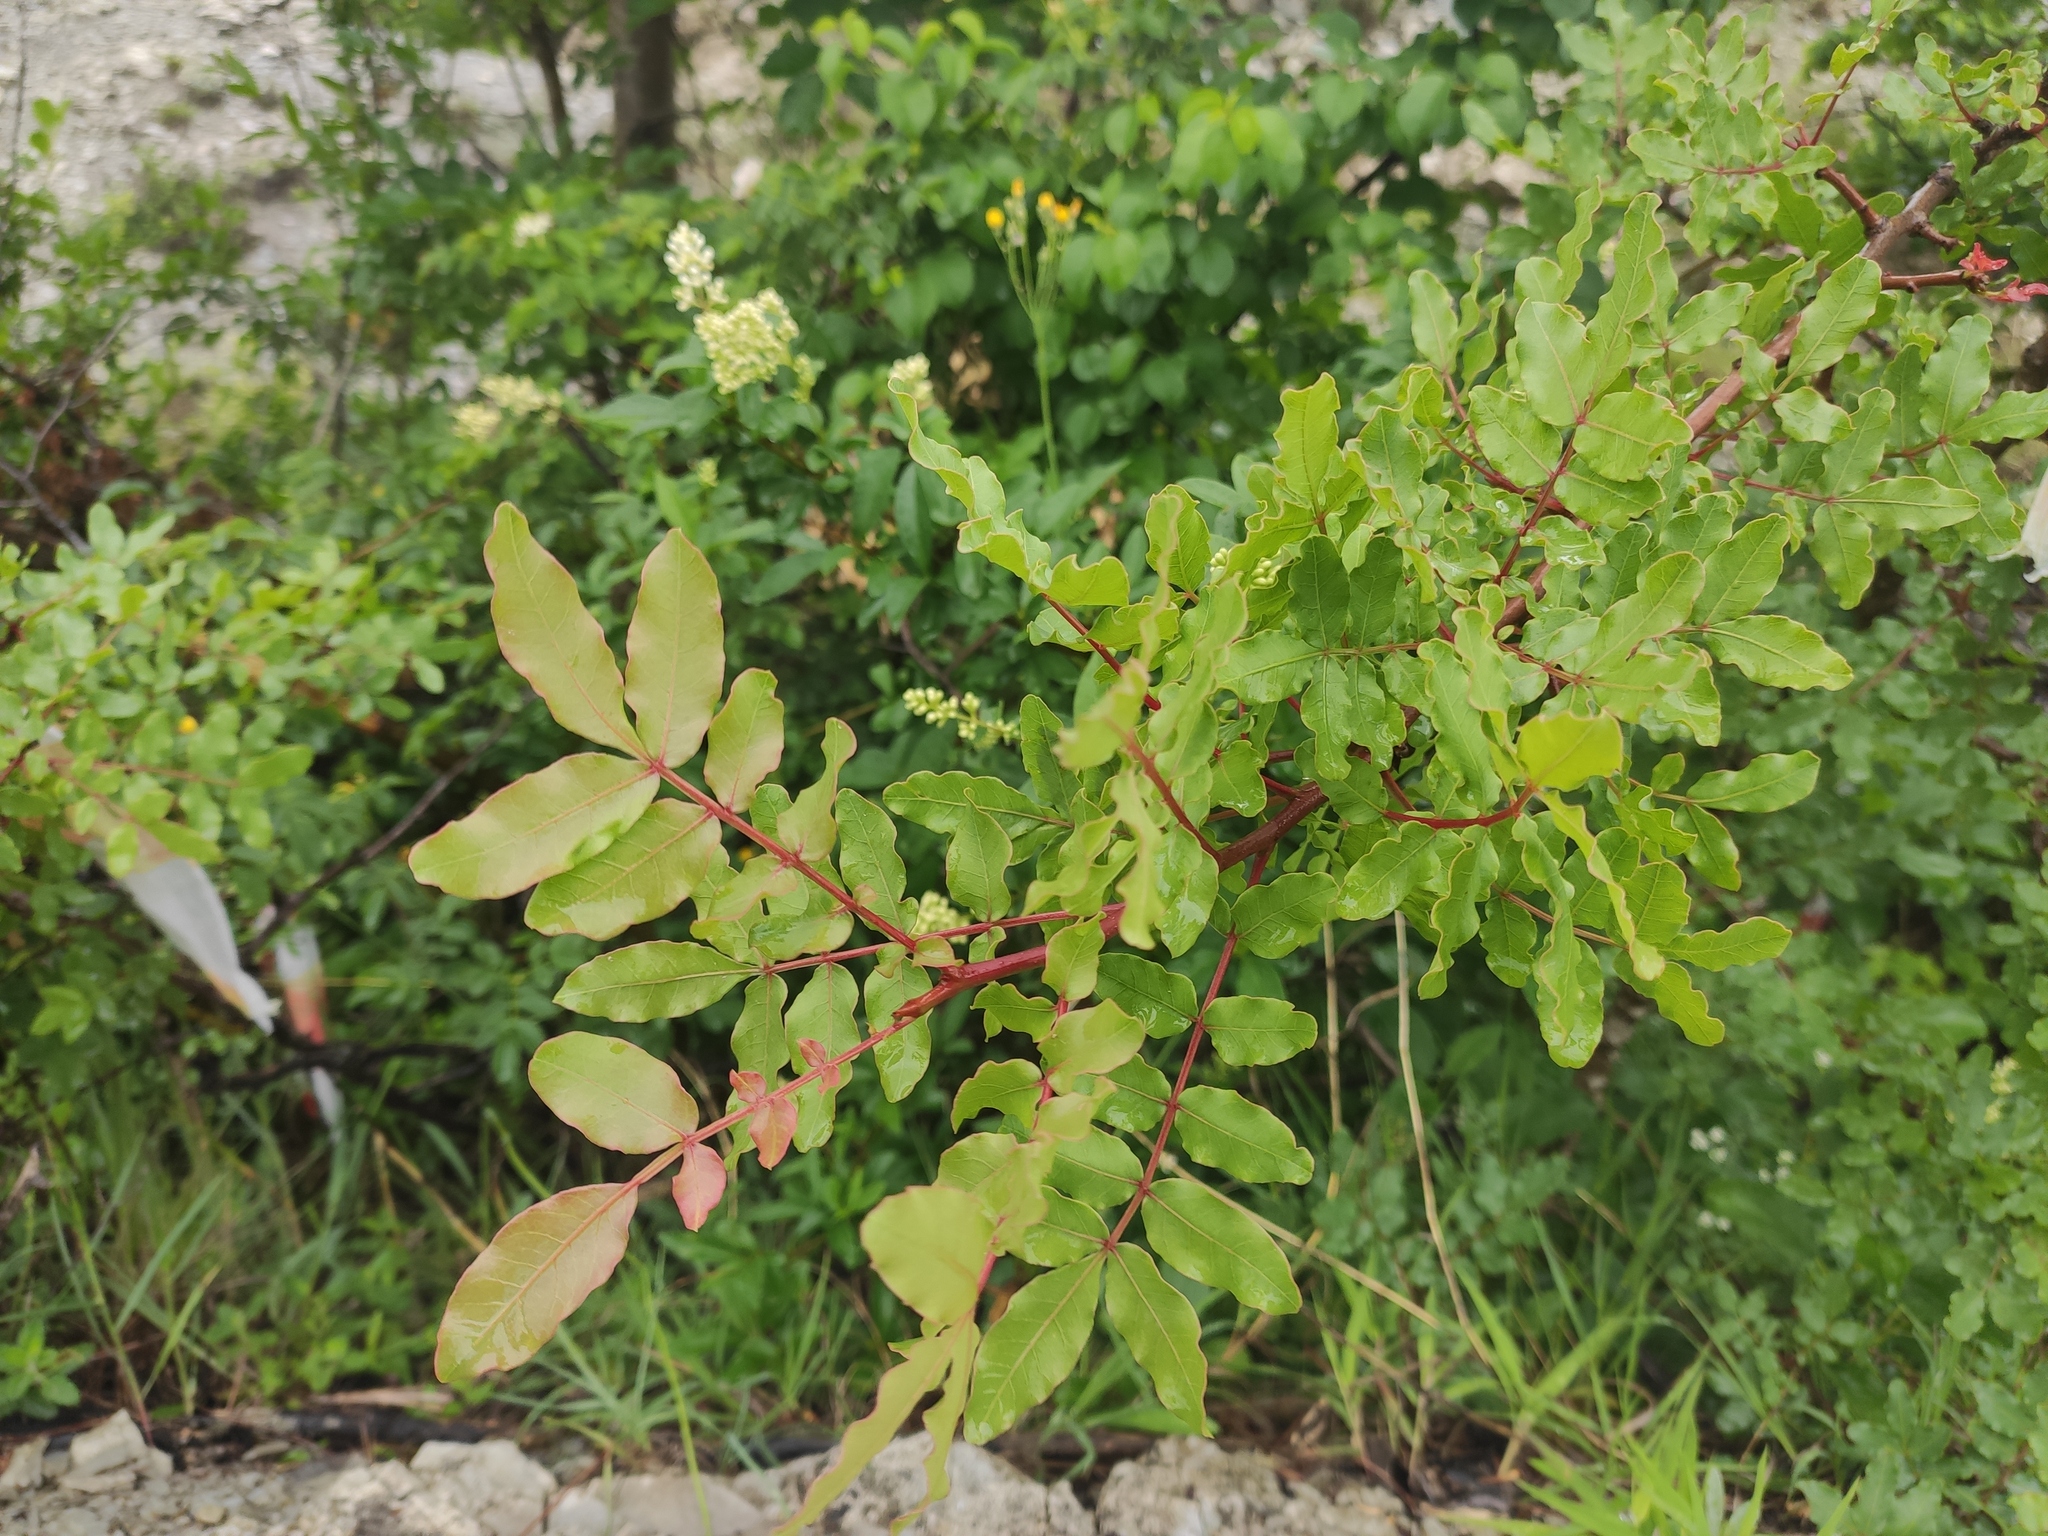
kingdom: Plantae
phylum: Tracheophyta
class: Magnoliopsida
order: Sapindales
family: Anacardiaceae
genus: Pistacia
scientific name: Pistacia atlantica
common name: Mt. atlas mastic tree
